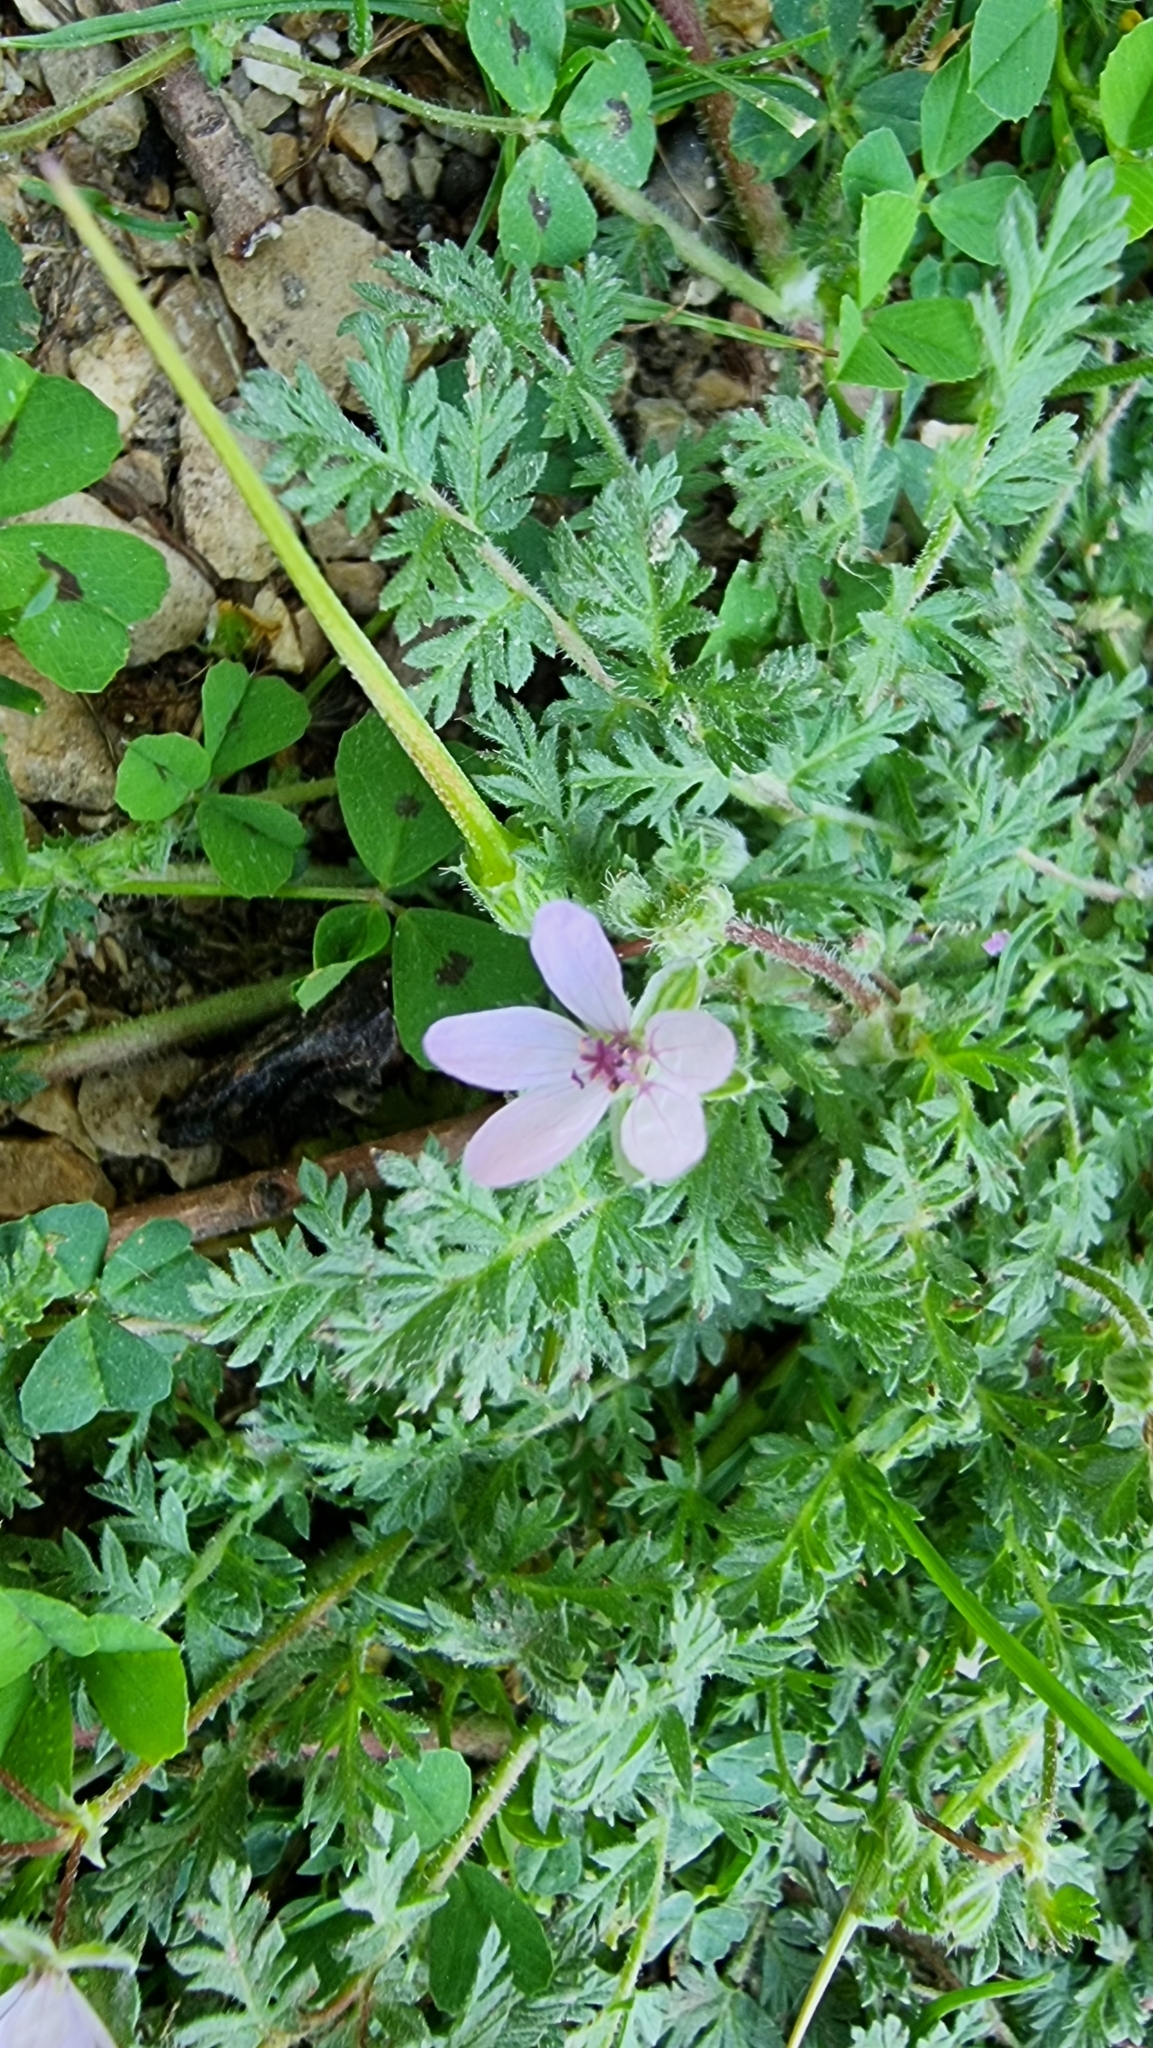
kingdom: Plantae
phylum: Tracheophyta
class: Magnoliopsida
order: Geraniales
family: Geraniaceae
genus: Erodium
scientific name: Erodium ciconium
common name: Common stork's bill
